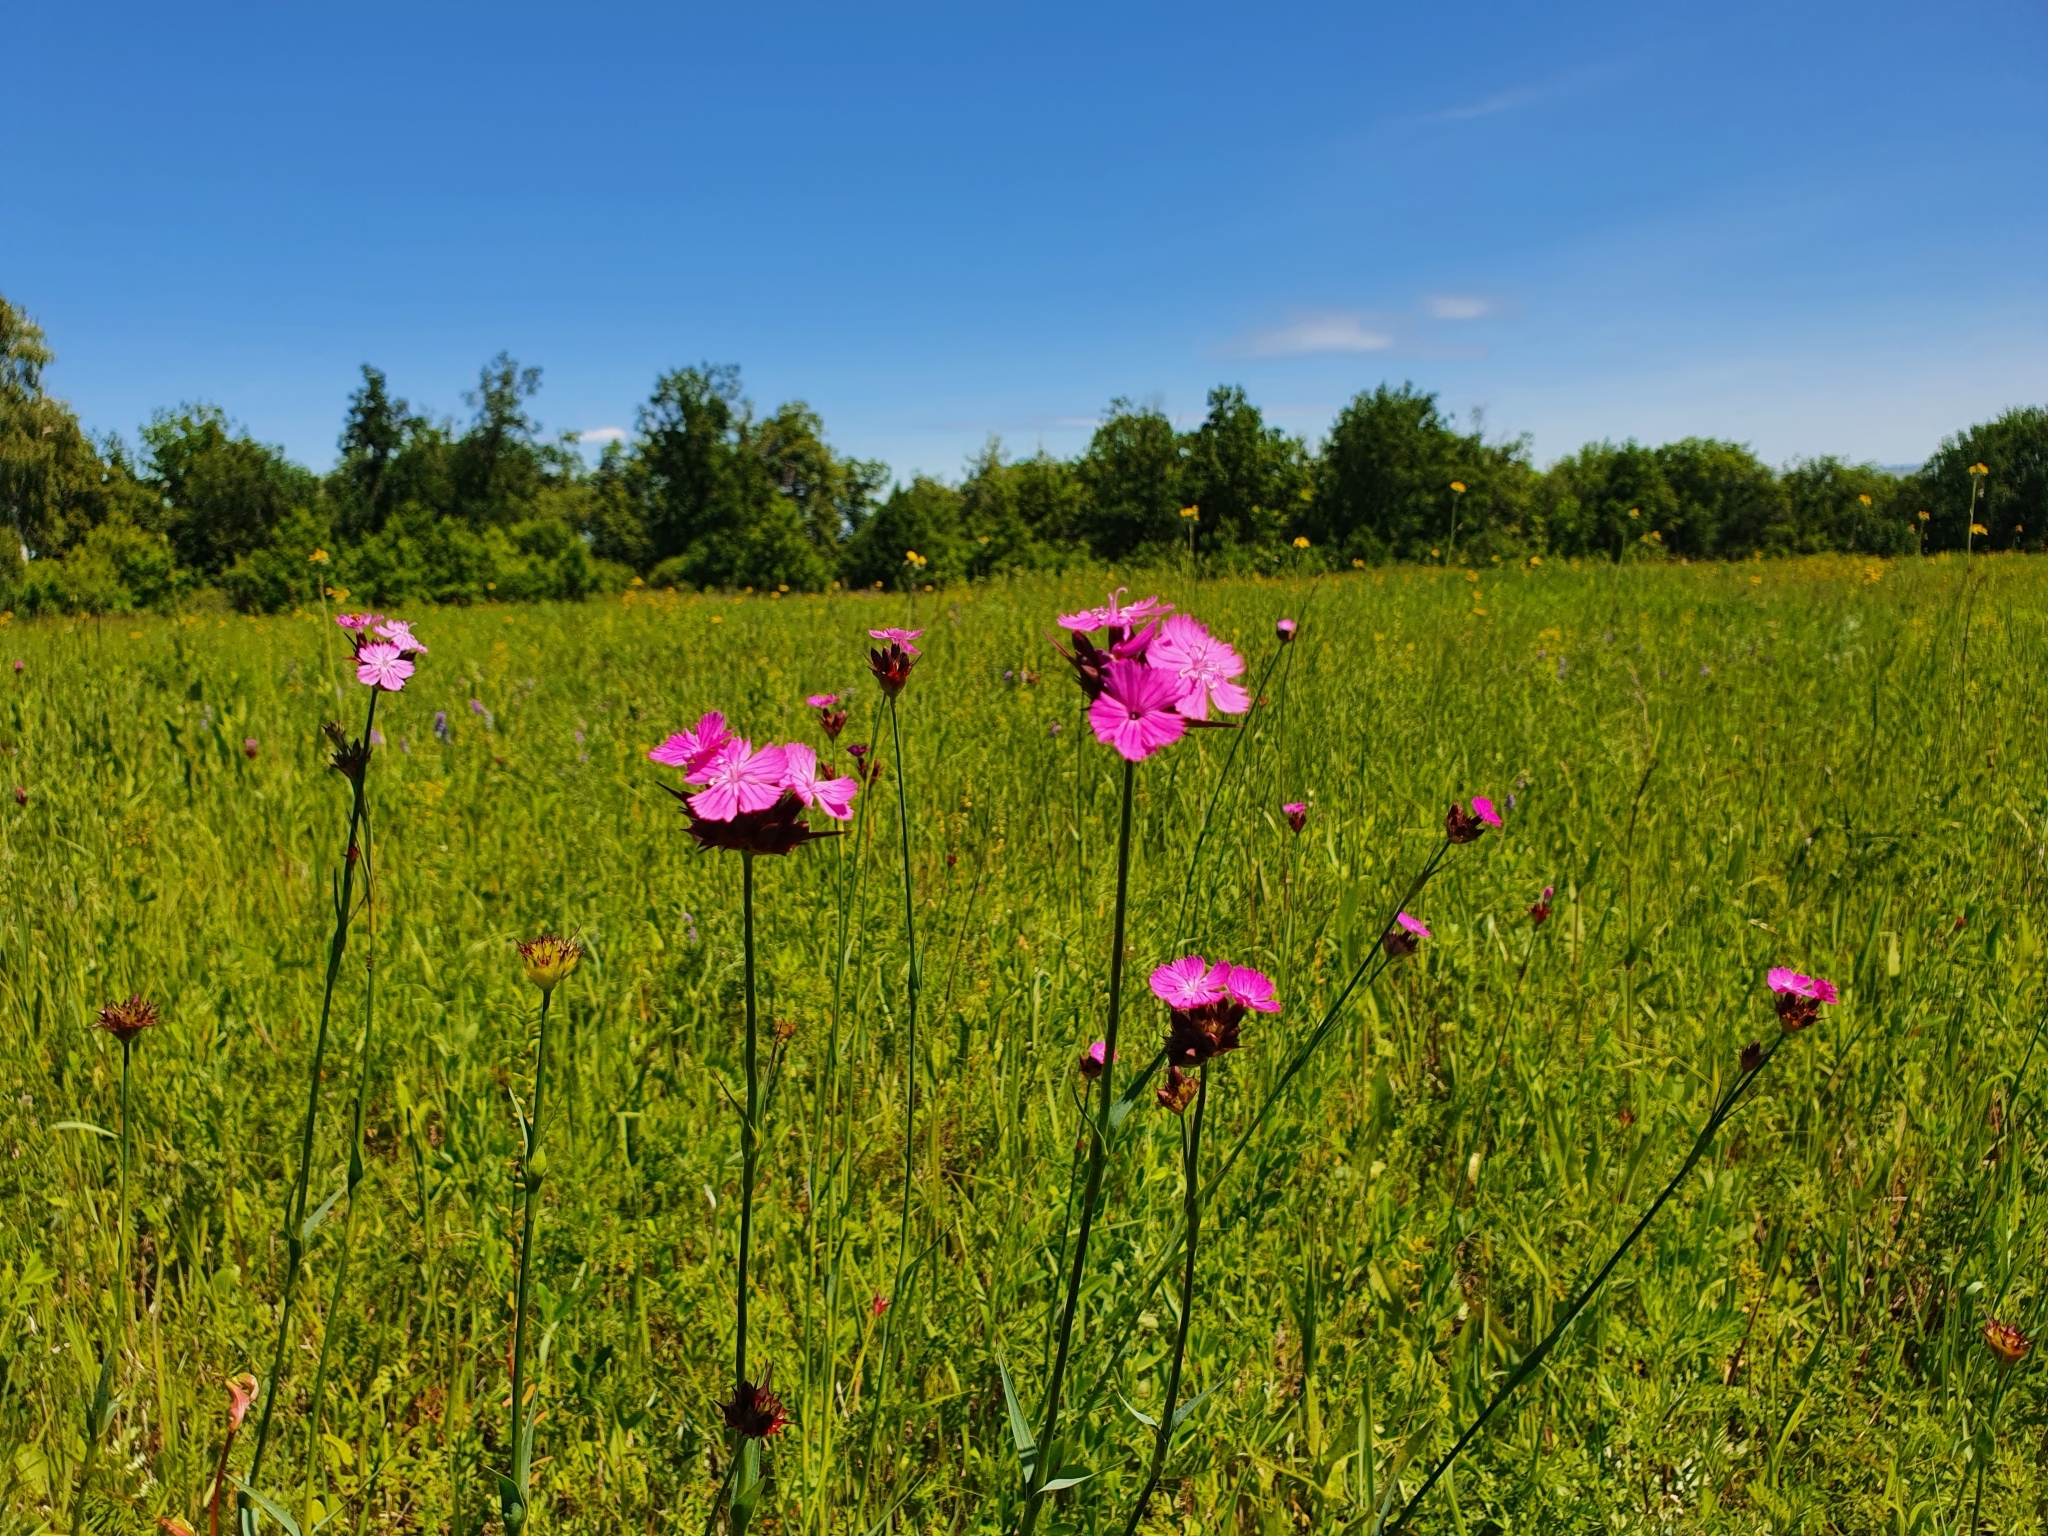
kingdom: Plantae
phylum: Tracheophyta
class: Magnoliopsida
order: Caryophyllales
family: Caryophyllaceae
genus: Dianthus
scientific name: Dianthus capitatus
